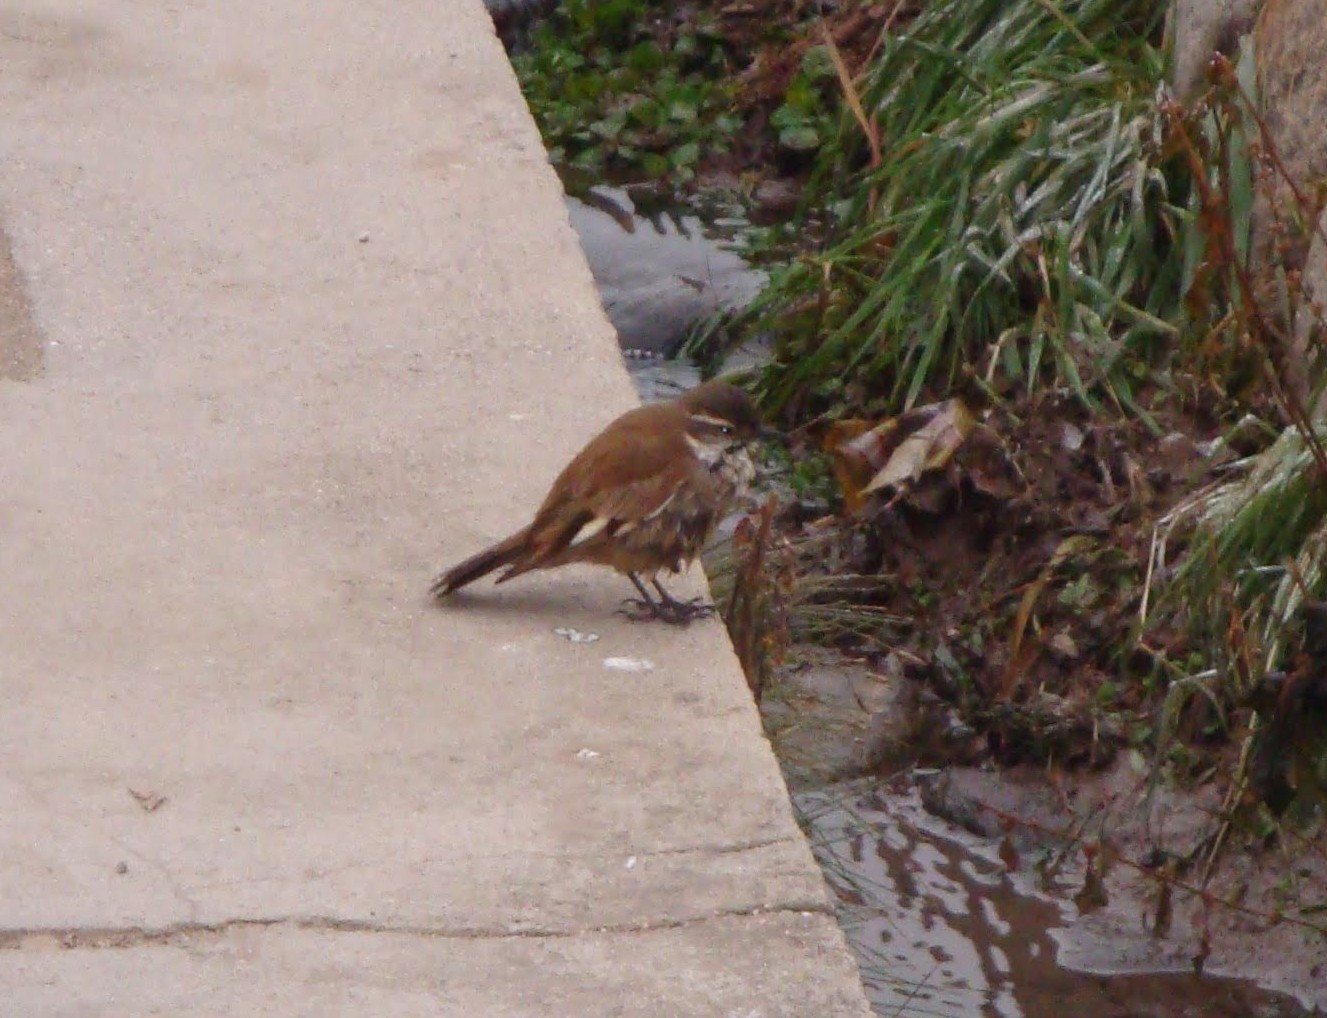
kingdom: Animalia
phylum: Chordata
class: Aves
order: Passeriformes
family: Furnariidae
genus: Cinclodes
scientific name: Cinclodes fuscus
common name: Buff-winged cinclodes
